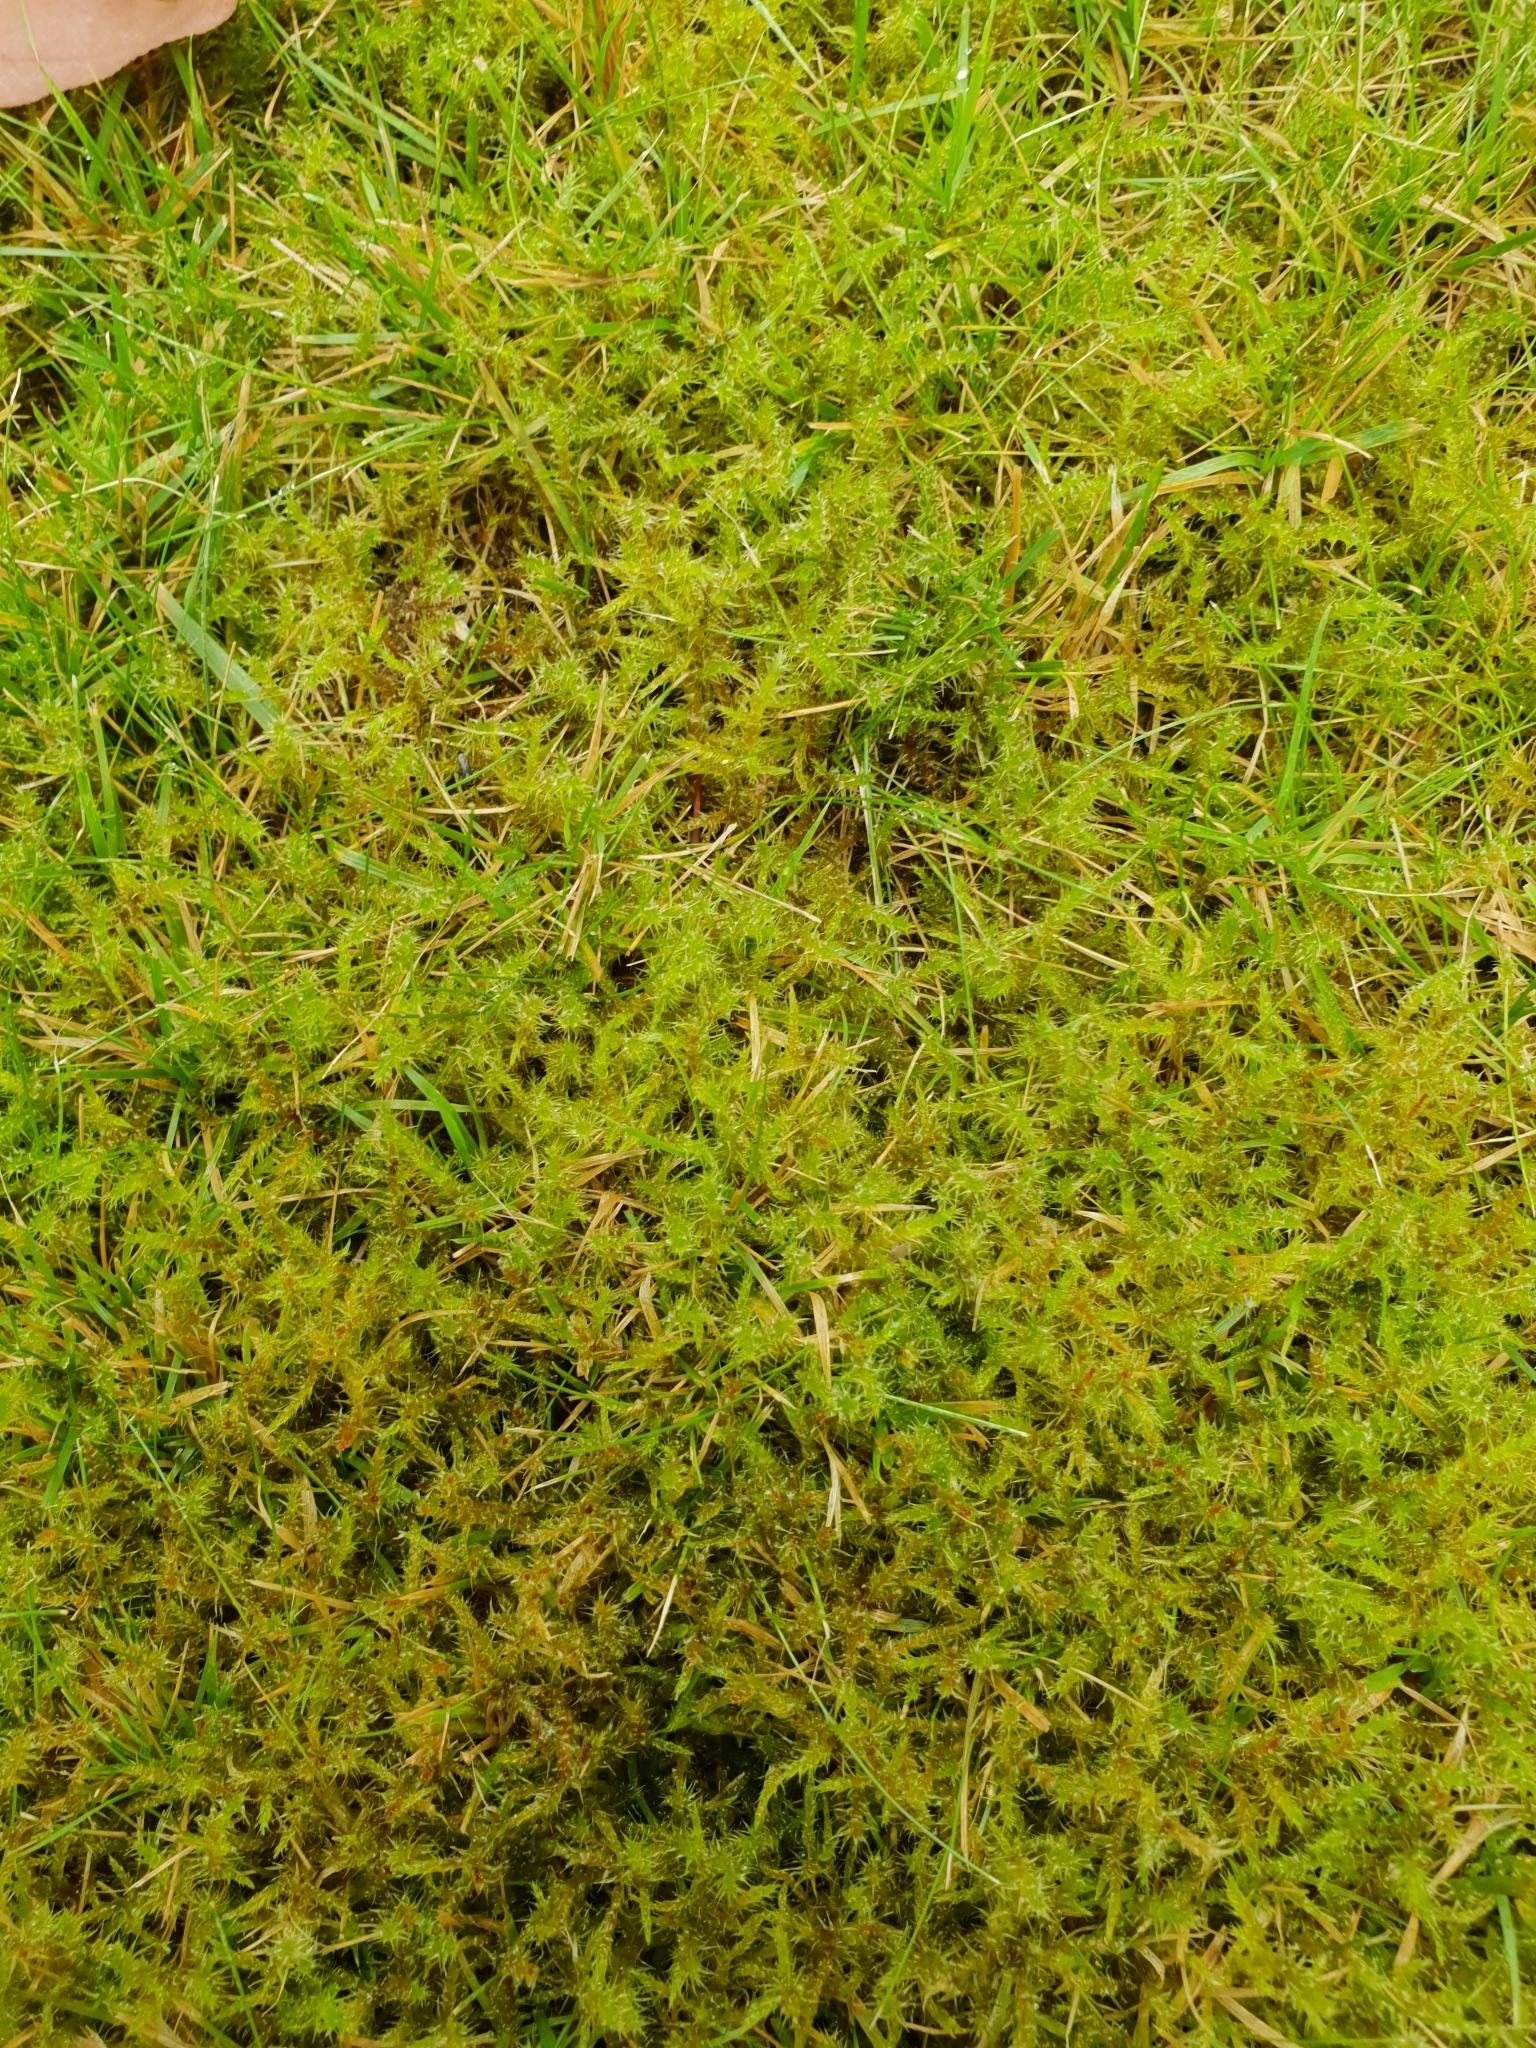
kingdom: Plantae
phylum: Bryophyta
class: Bryopsida
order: Hypnales
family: Hylocomiaceae
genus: Rhytidiadelphus
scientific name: Rhytidiadelphus squarrosus
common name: Springy turf-moss
